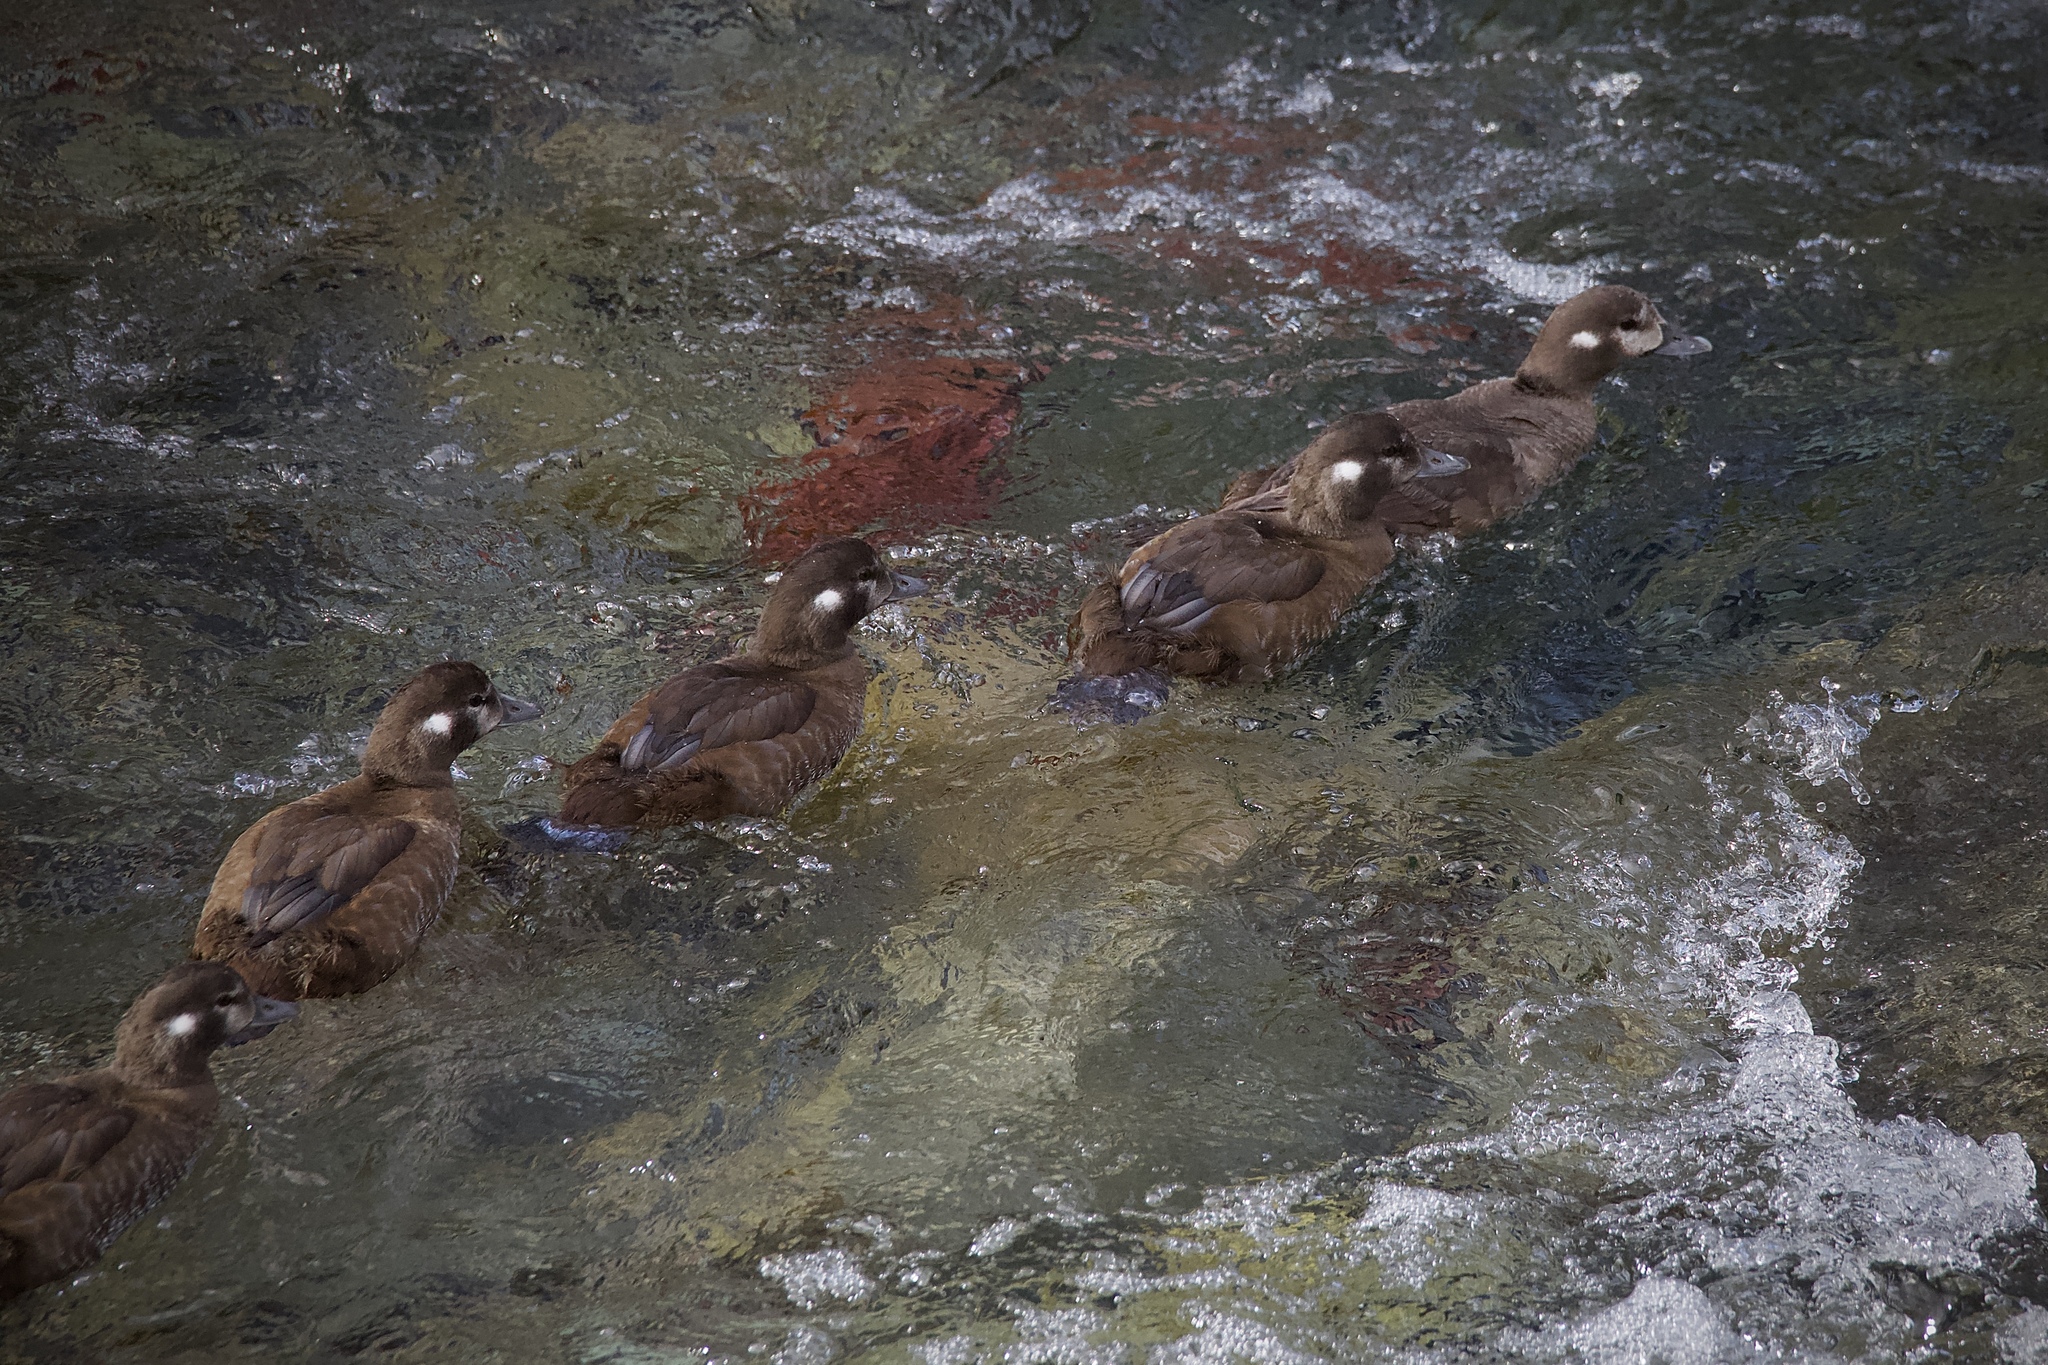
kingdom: Animalia
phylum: Chordata
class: Aves
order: Anseriformes
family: Anatidae
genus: Histrionicus
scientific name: Histrionicus histrionicus
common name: Harlequin duck
